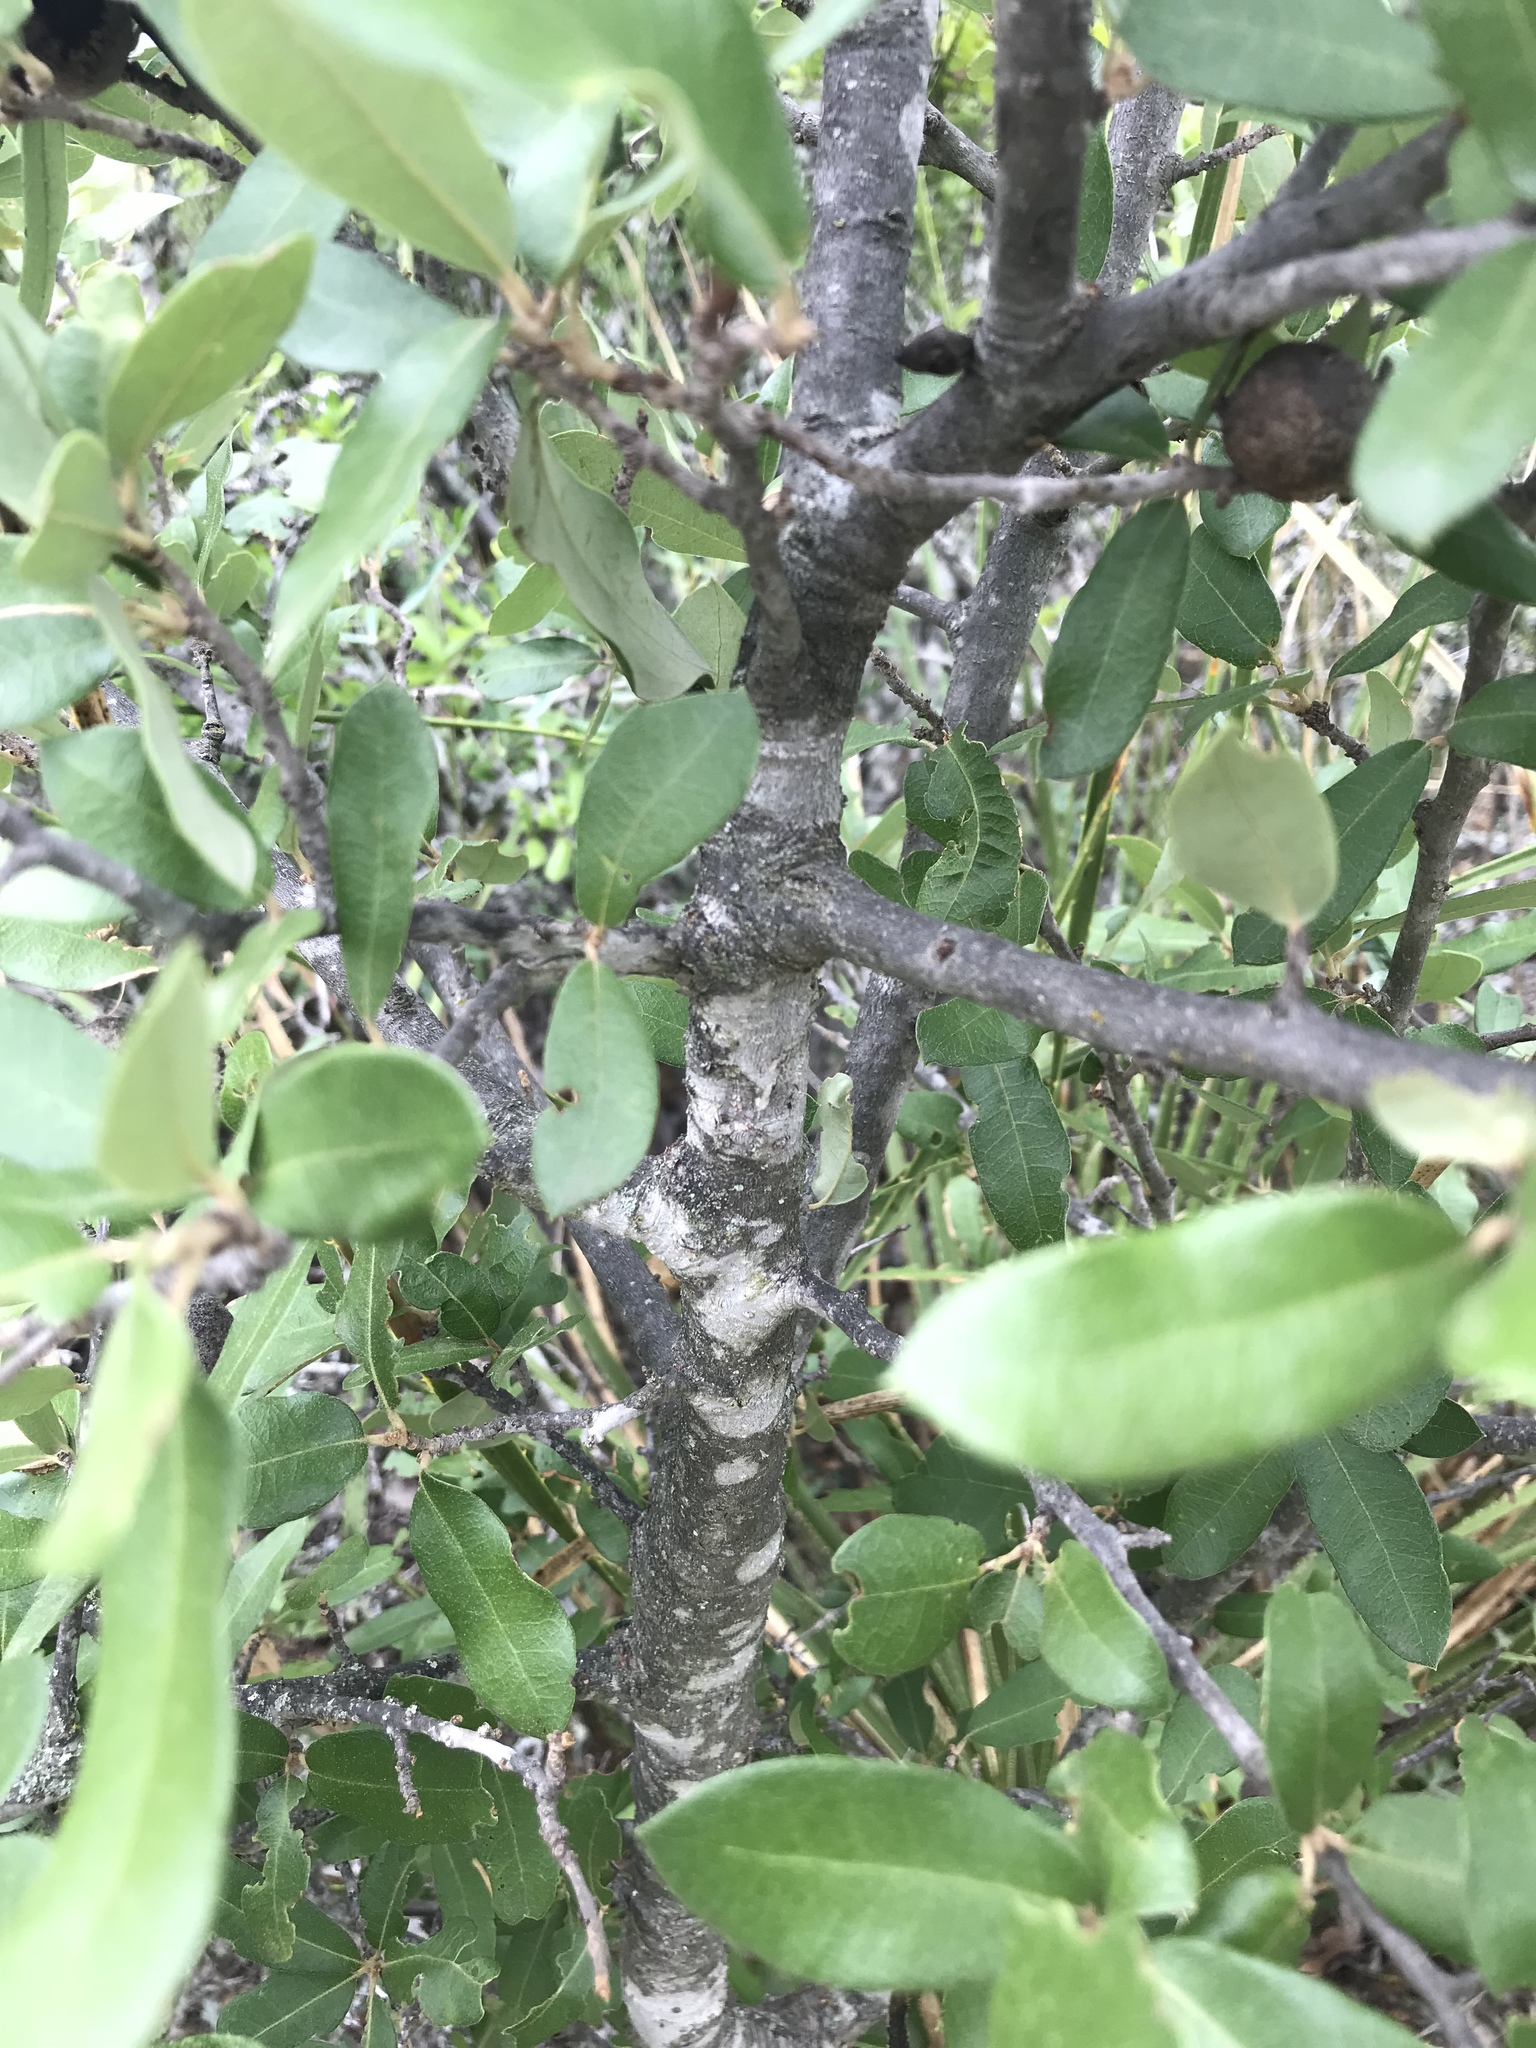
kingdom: Plantae
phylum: Tracheophyta
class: Magnoliopsida
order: Fagales
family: Fagaceae
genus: Quercus
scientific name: Quercus fusiformis
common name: Texas live oak
